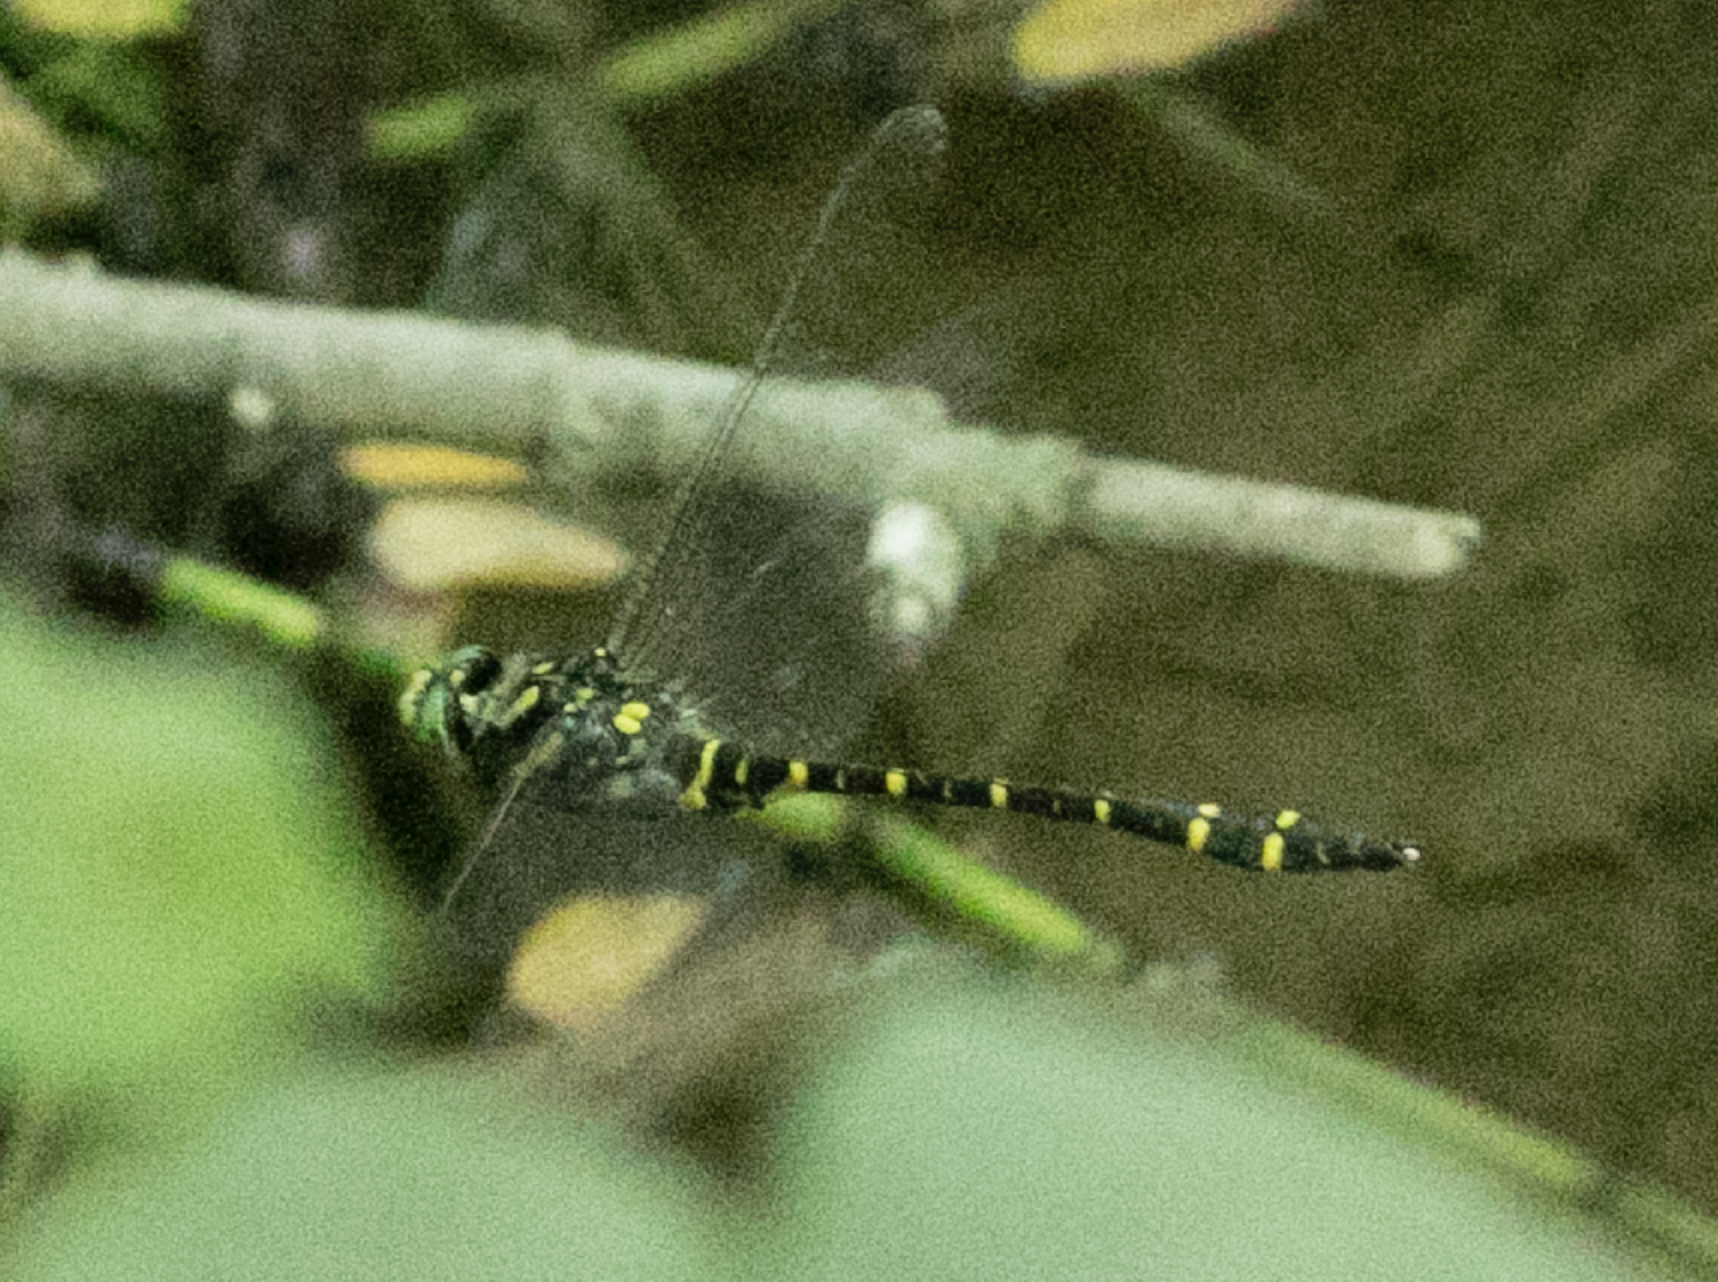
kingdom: Animalia
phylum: Arthropoda
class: Insecta
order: Odonata
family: Cordulegastridae
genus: Cordulegaster
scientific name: Cordulegaster boltonii
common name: Golden-ringed dragonfly
